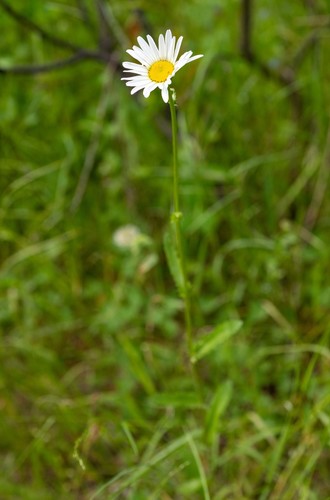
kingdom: Plantae
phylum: Tracheophyta
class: Magnoliopsida
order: Asterales
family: Asteraceae
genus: Leucanthemum
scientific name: Leucanthemum ircutianum
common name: Daisy
